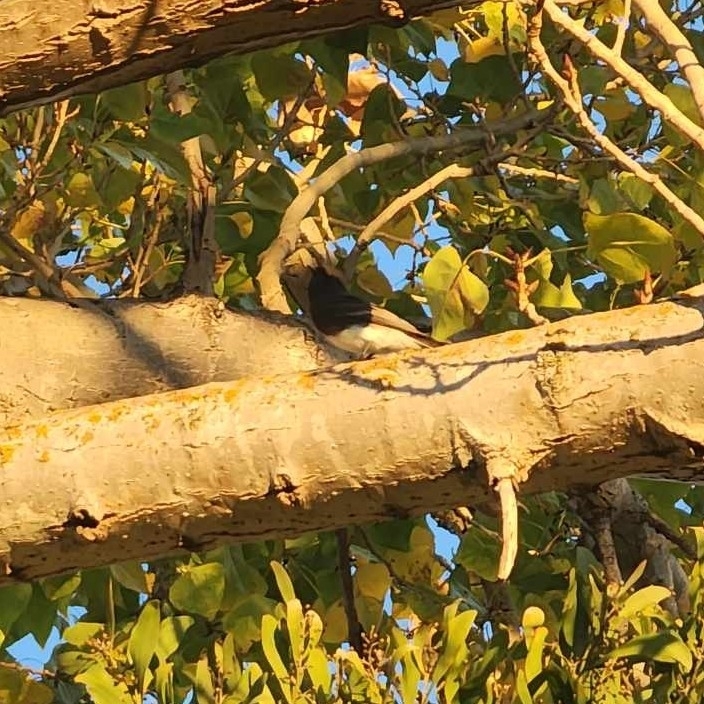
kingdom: Animalia
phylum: Chordata
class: Aves
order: Passeriformes
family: Tyrannidae
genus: Sayornis
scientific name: Sayornis nigricans
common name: Black phoebe
